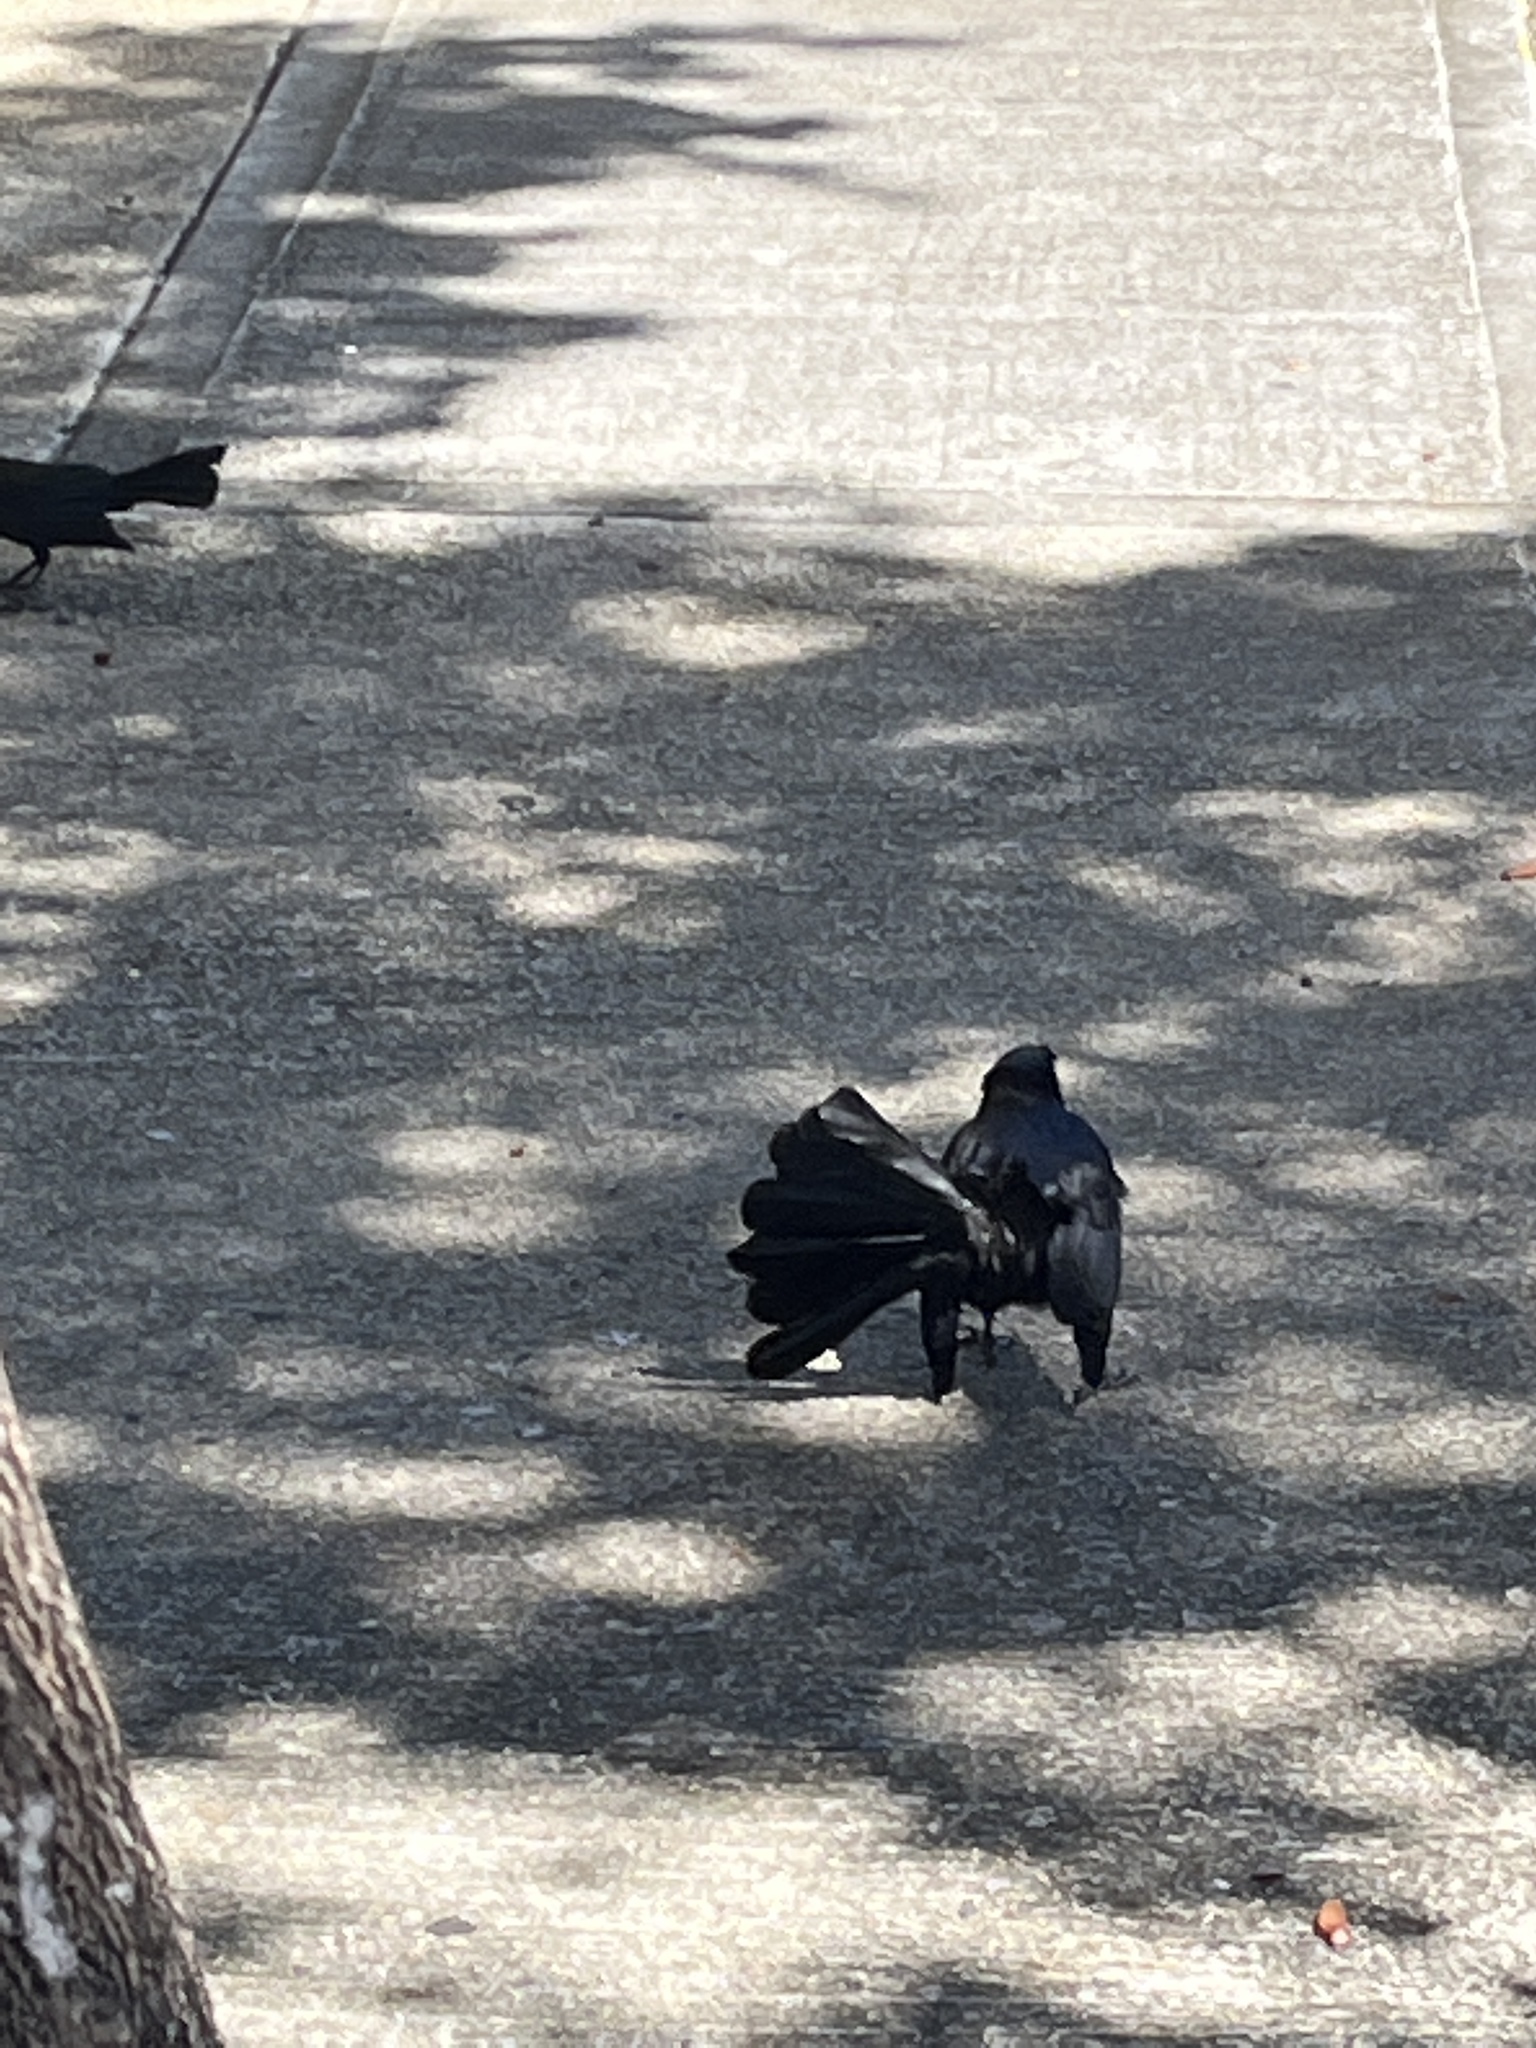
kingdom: Animalia
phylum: Chordata
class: Aves
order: Passeriformes
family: Icteridae
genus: Quiscalus
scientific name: Quiscalus niger
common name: Greater antillean grackle
